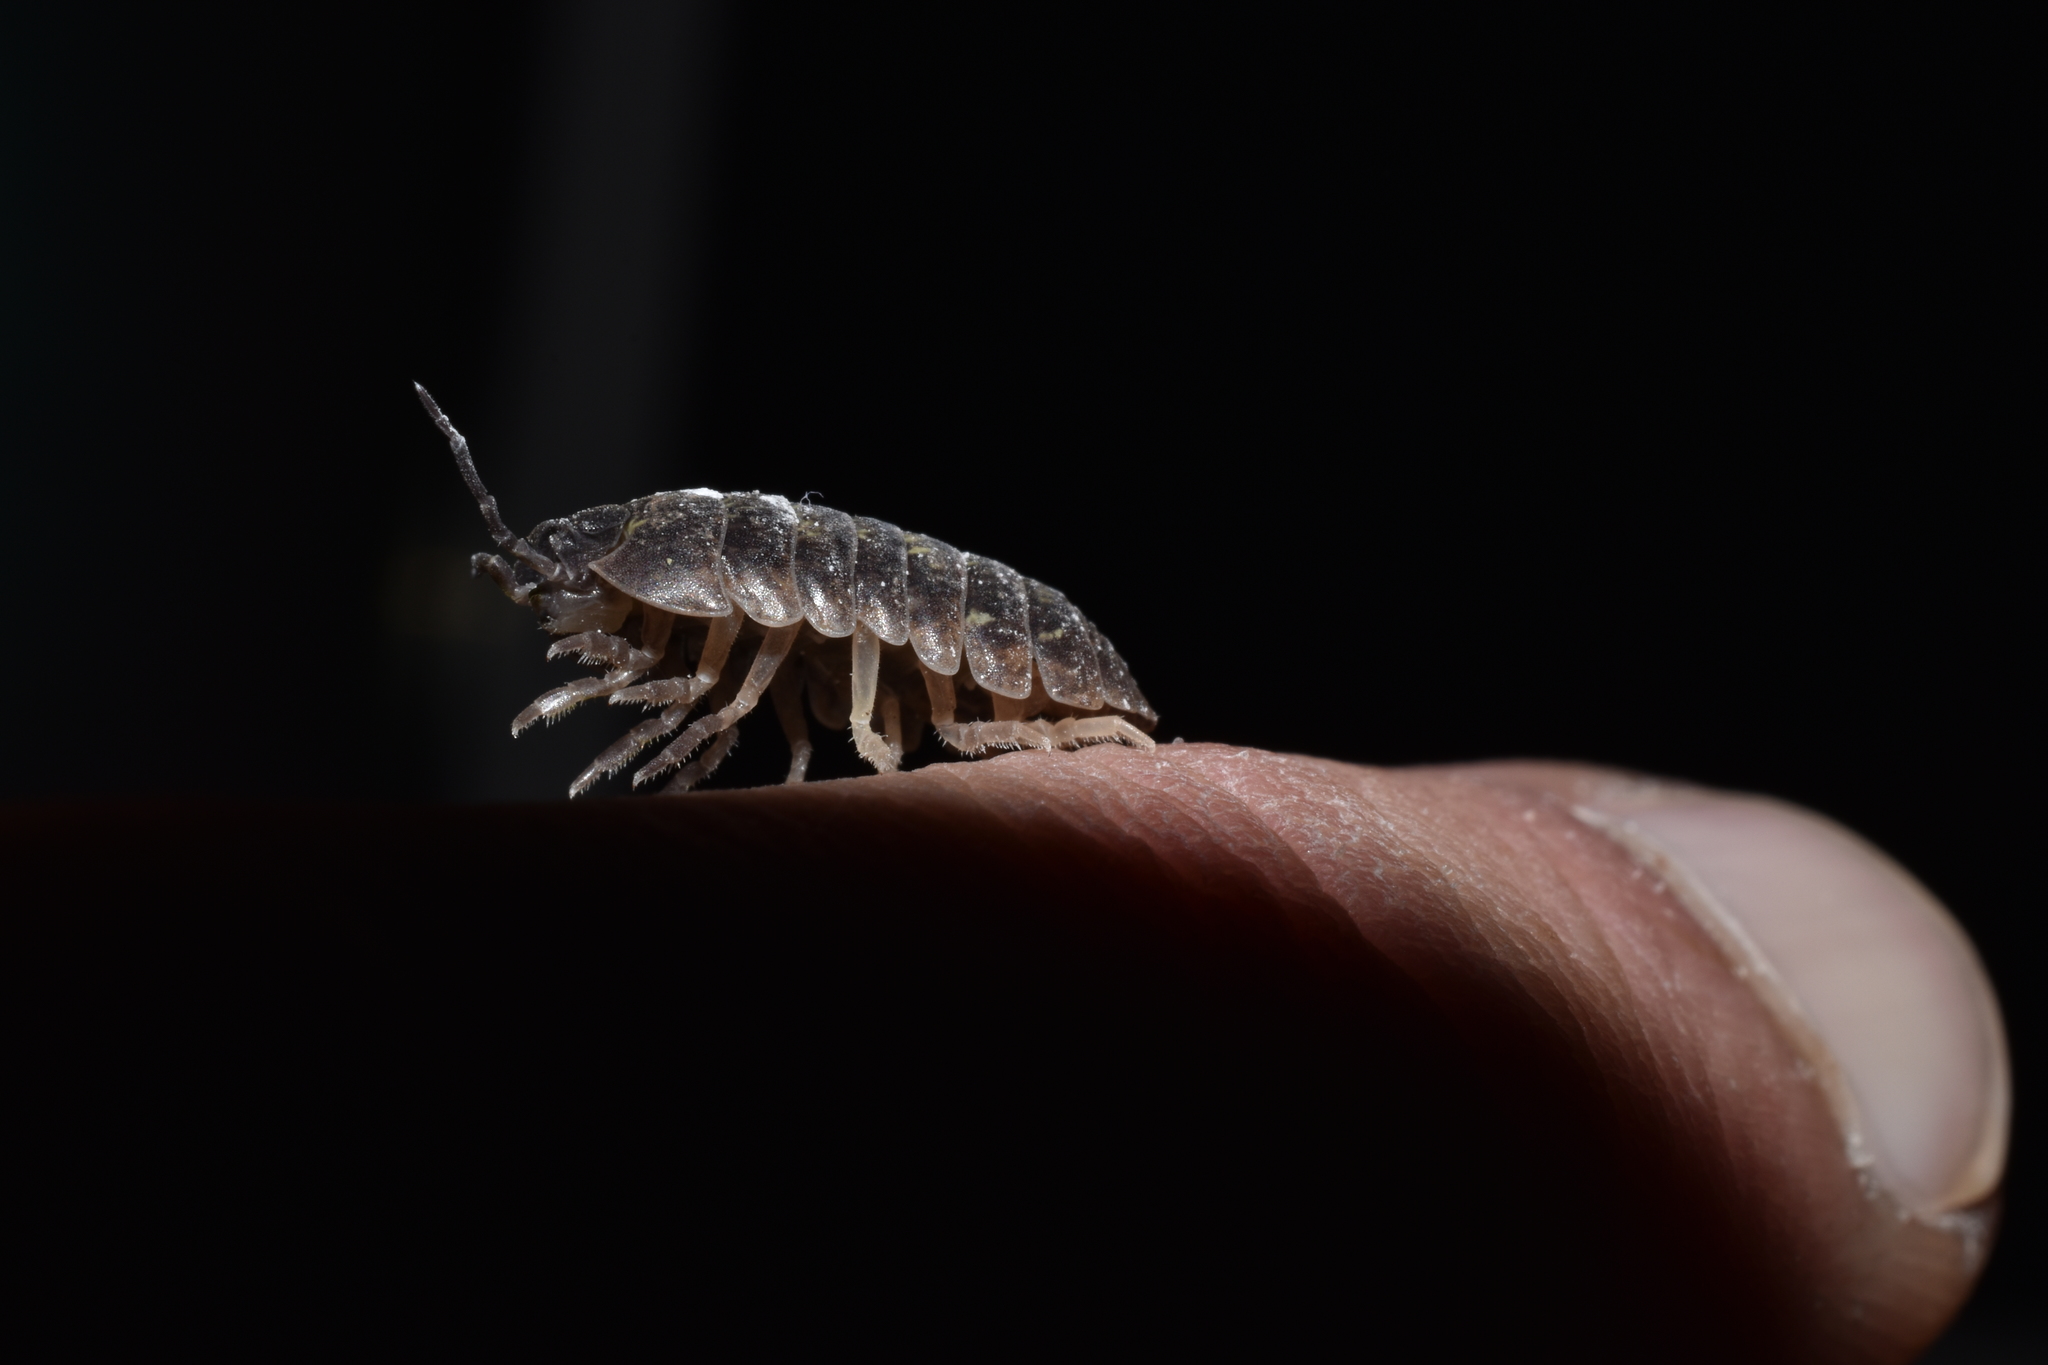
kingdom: Animalia
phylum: Arthropoda
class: Malacostraca
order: Isopoda
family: Armadillidiidae
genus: Armadillidium
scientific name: Armadillidium vulgare
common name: Common pill woodlouse
